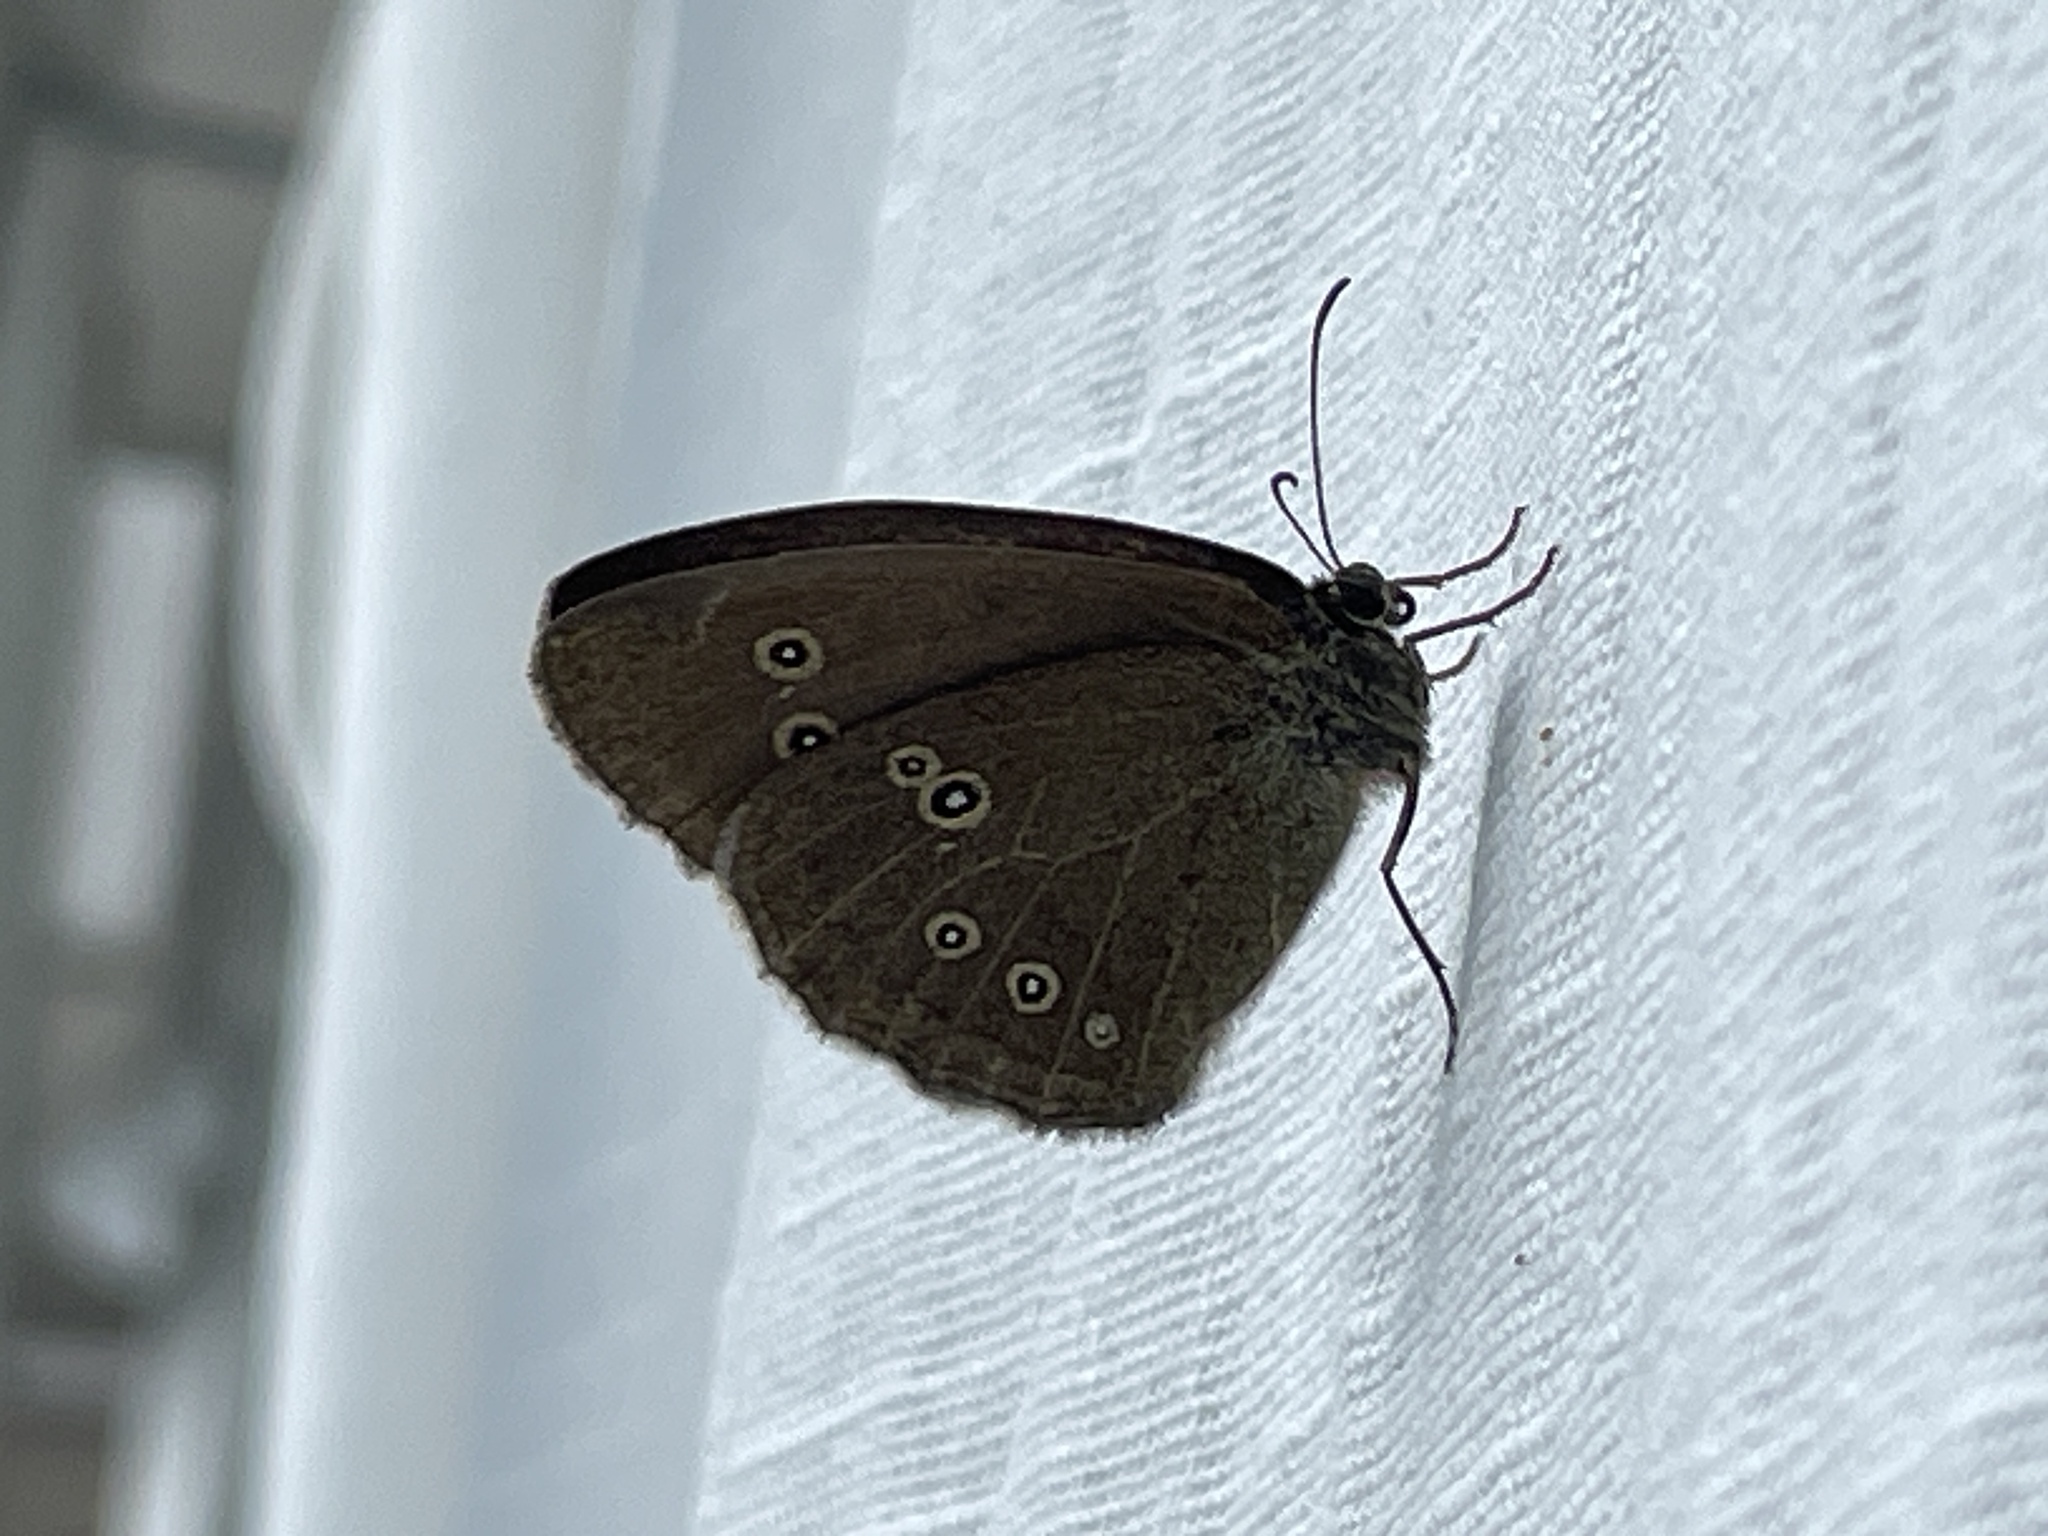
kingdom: Animalia
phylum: Arthropoda
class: Insecta
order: Lepidoptera
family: Nymphalidae
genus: Aphantopus
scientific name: Aphantopus hyperantus
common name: Ringlet
